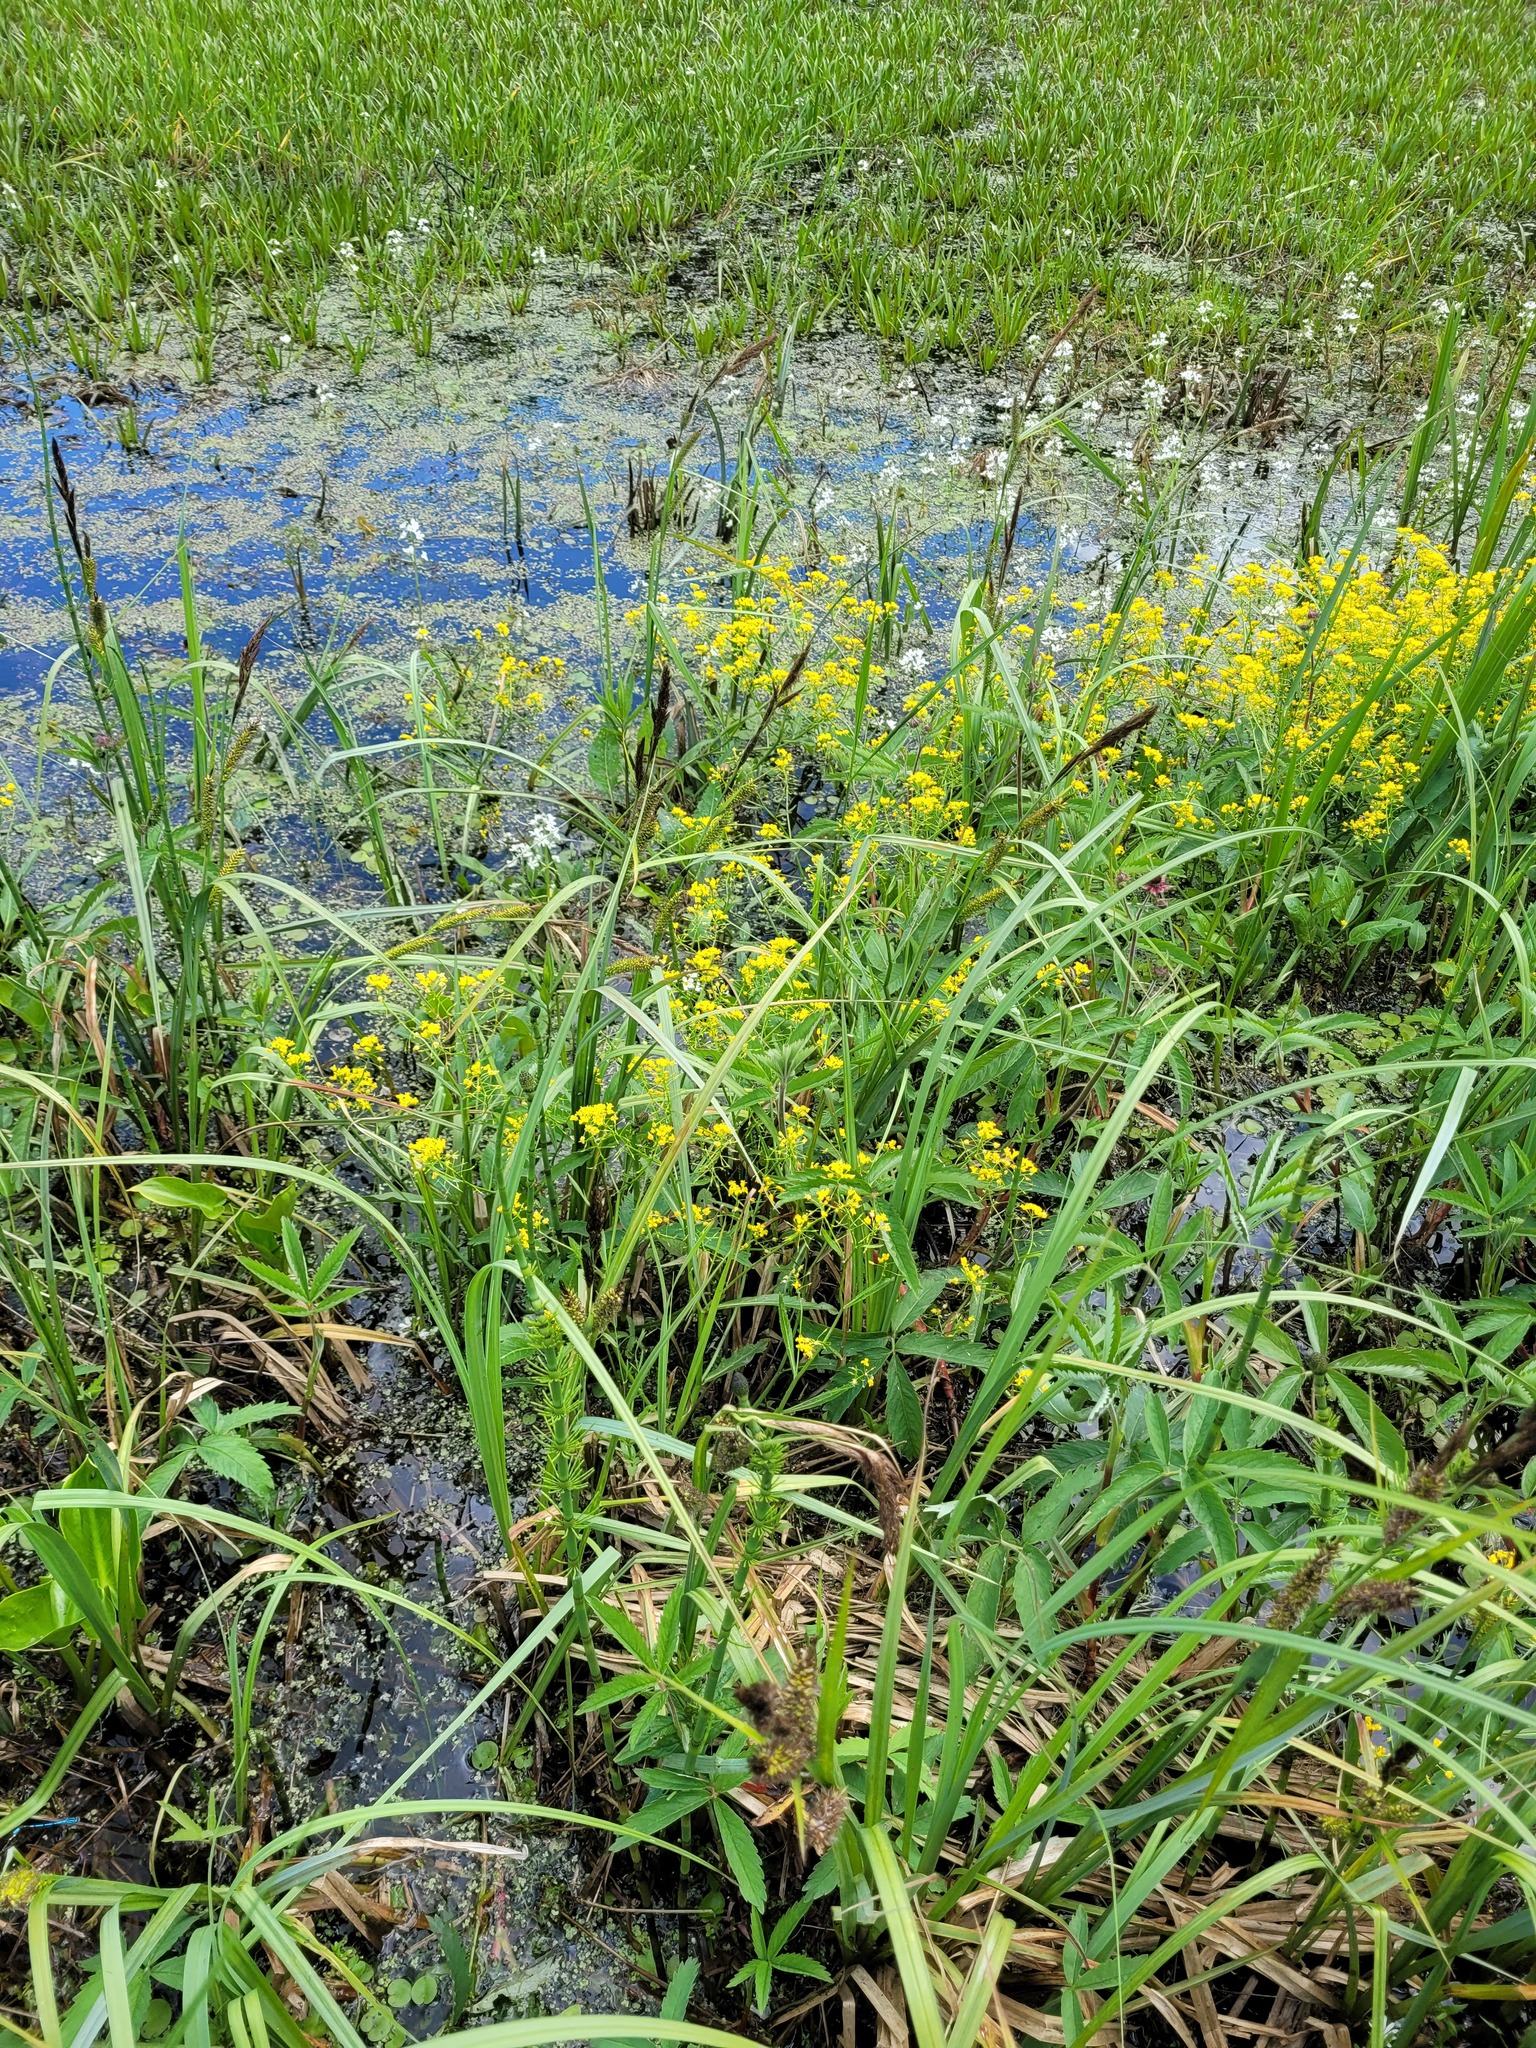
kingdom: Plantae
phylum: Tracheophyta
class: Magnoliopsida
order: Brassicales
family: Brassicaceae
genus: Rorippa
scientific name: Rorippa amphibia
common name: Great yellow-cress
